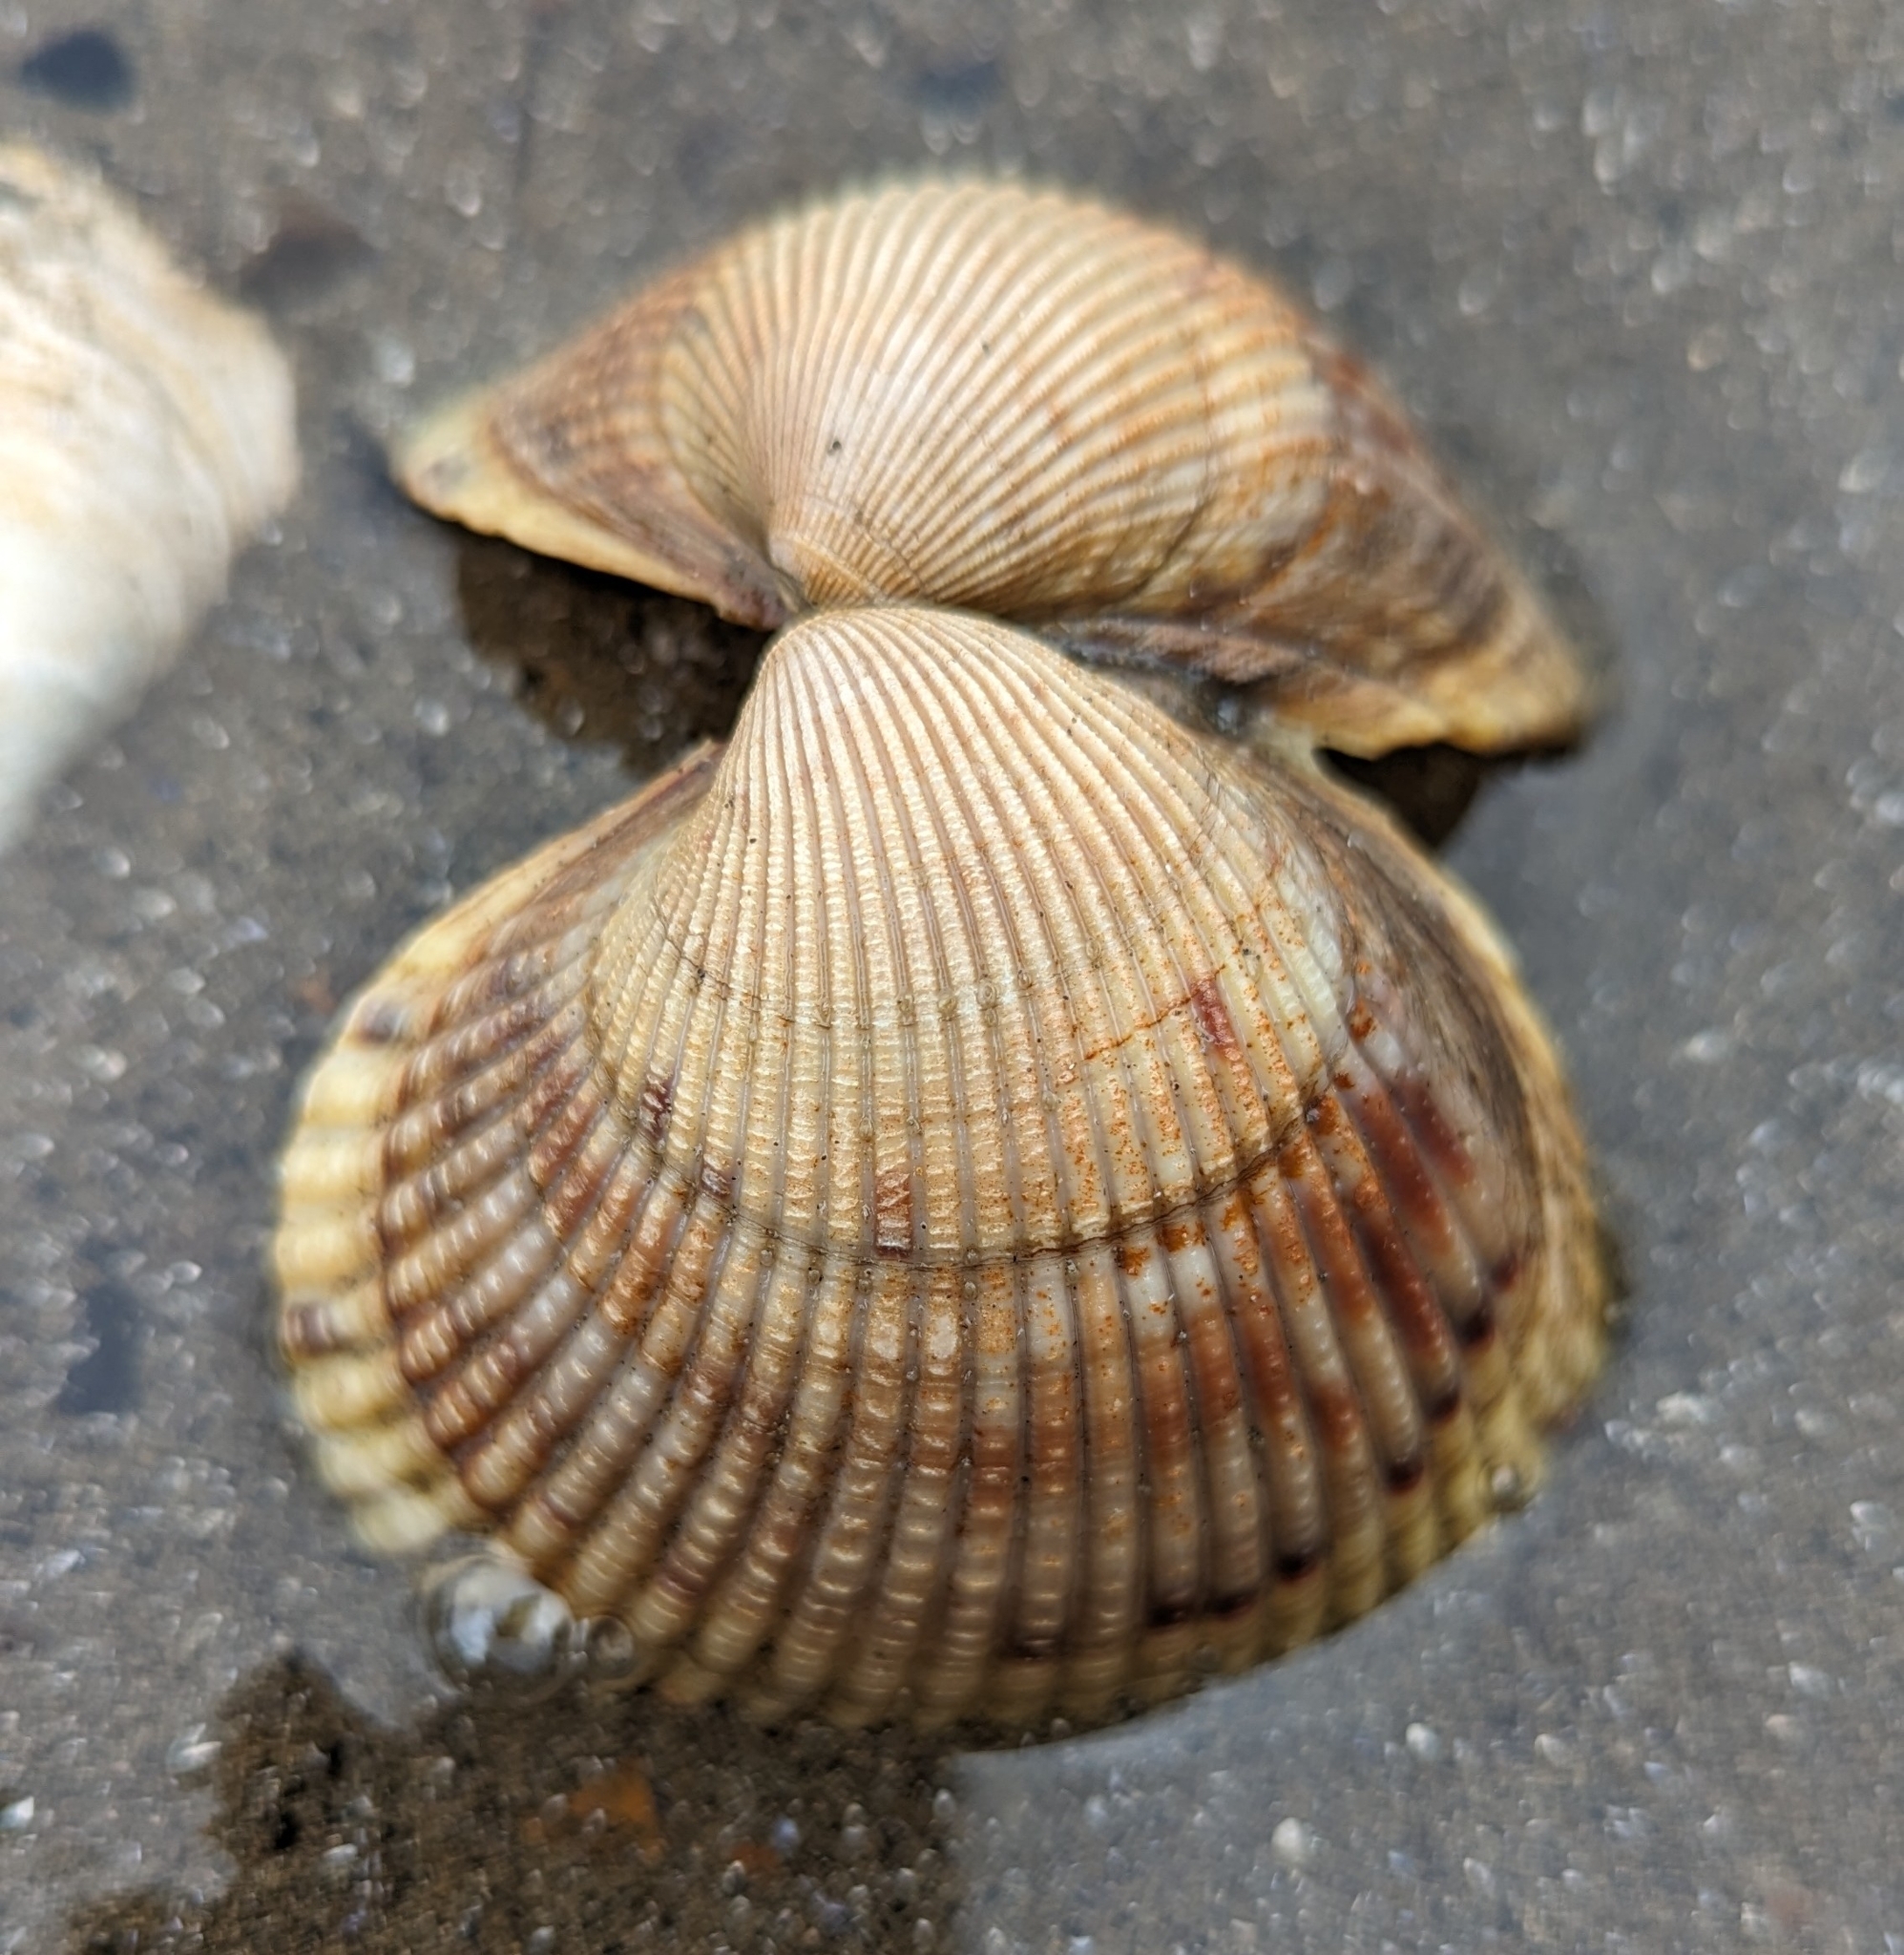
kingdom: Animalia
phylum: Mollusca
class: Bivalvia
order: Cardiida
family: Cardiidae
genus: Clinocardium
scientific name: Clinocardium nuttallii
